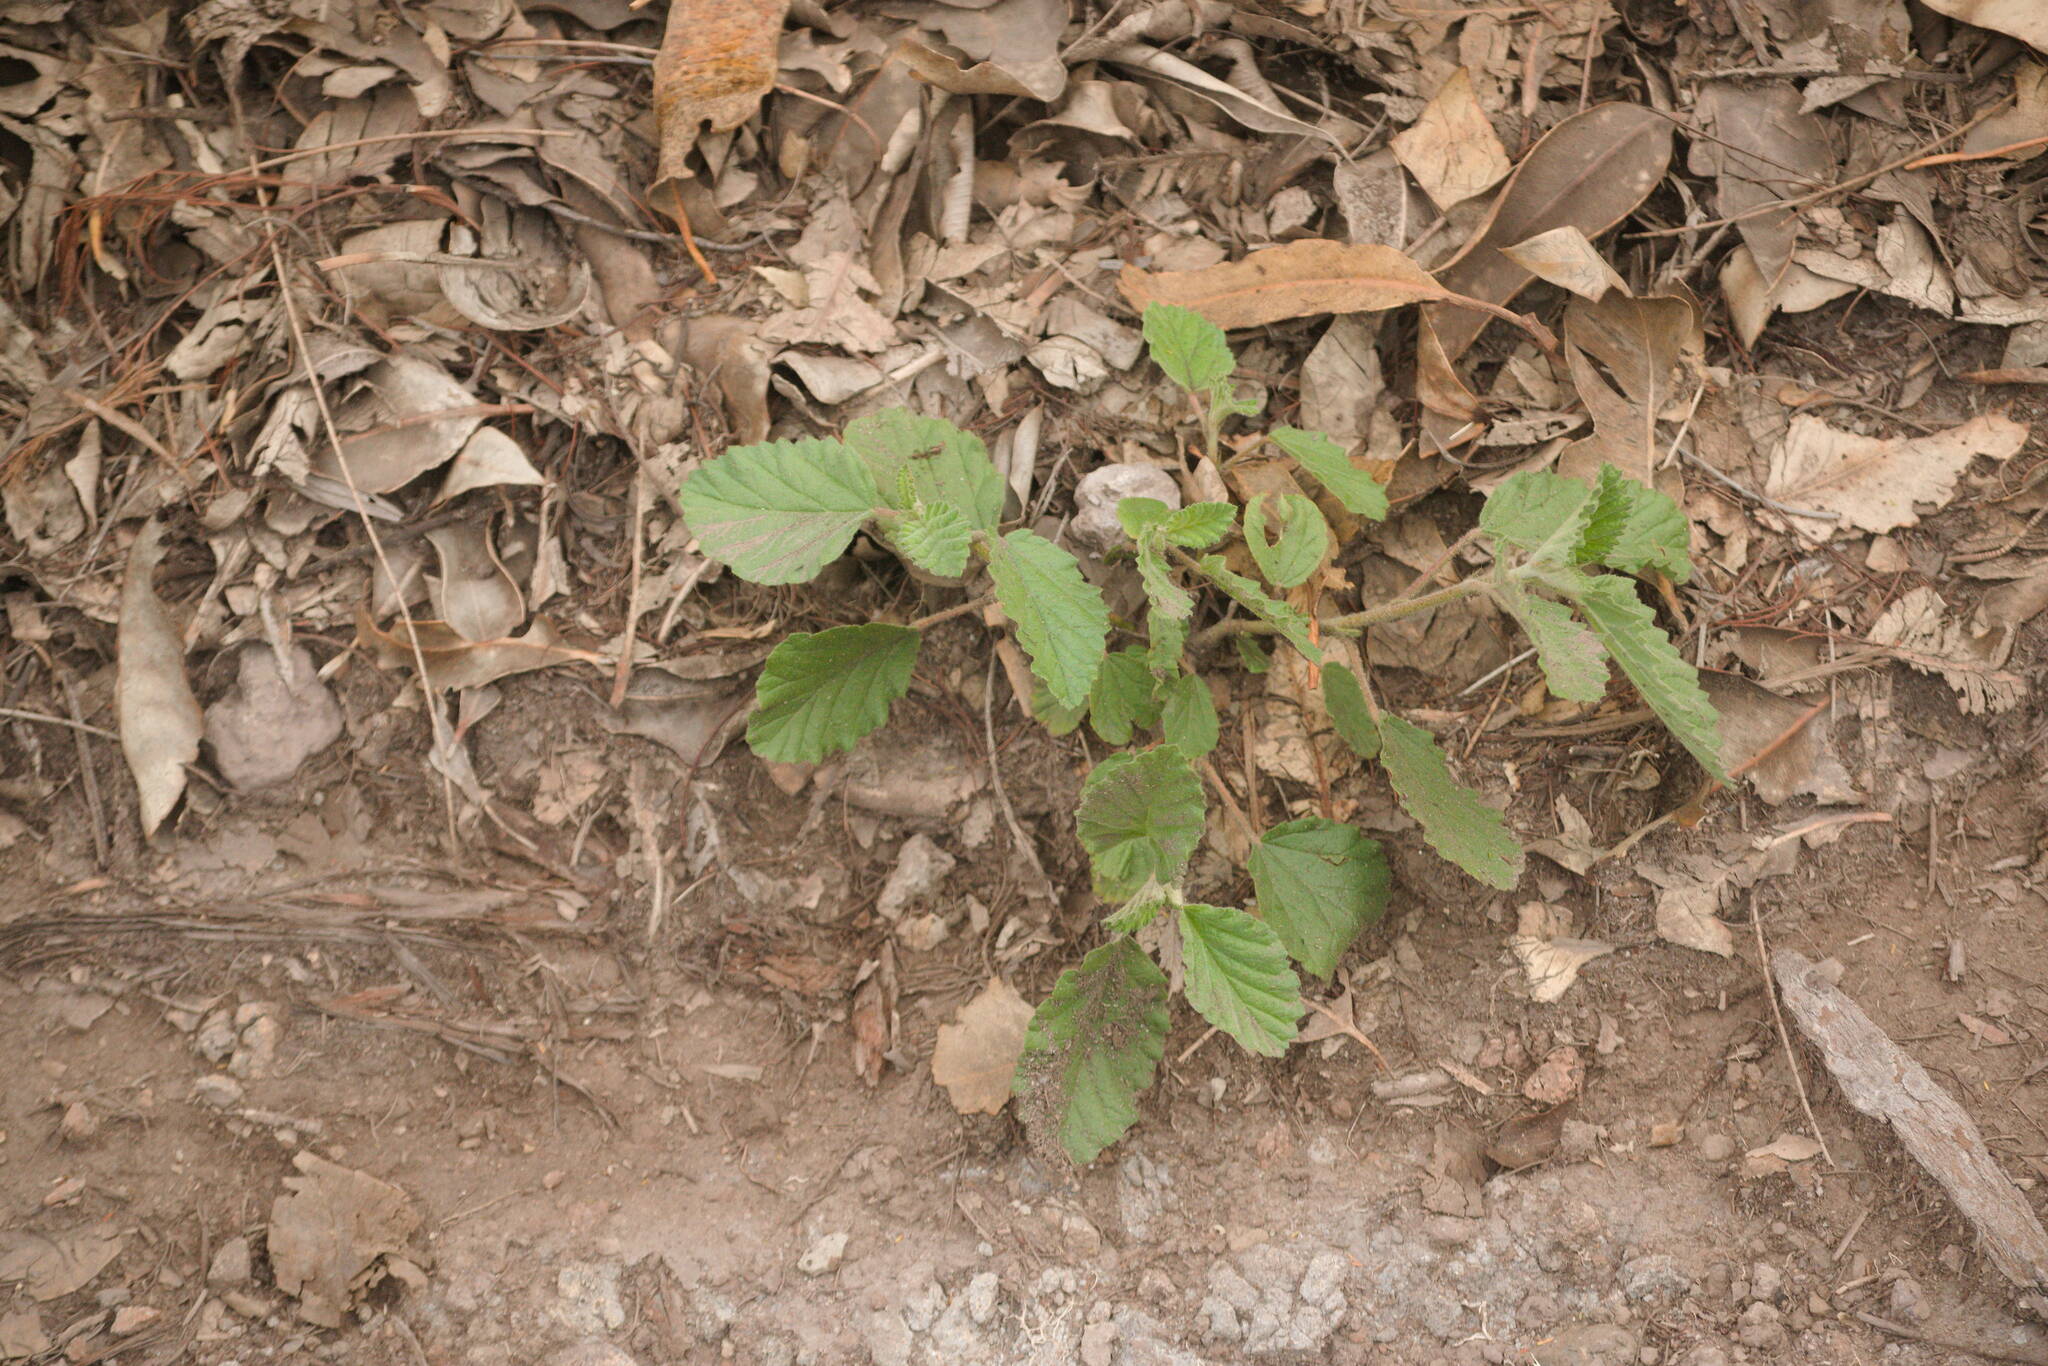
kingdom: Plantae
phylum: Tracheophyta
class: Magnoliopsida
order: Malvales
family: Malvaceae
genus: Waltheria
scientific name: Waltheria indica
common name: Leather-coat
